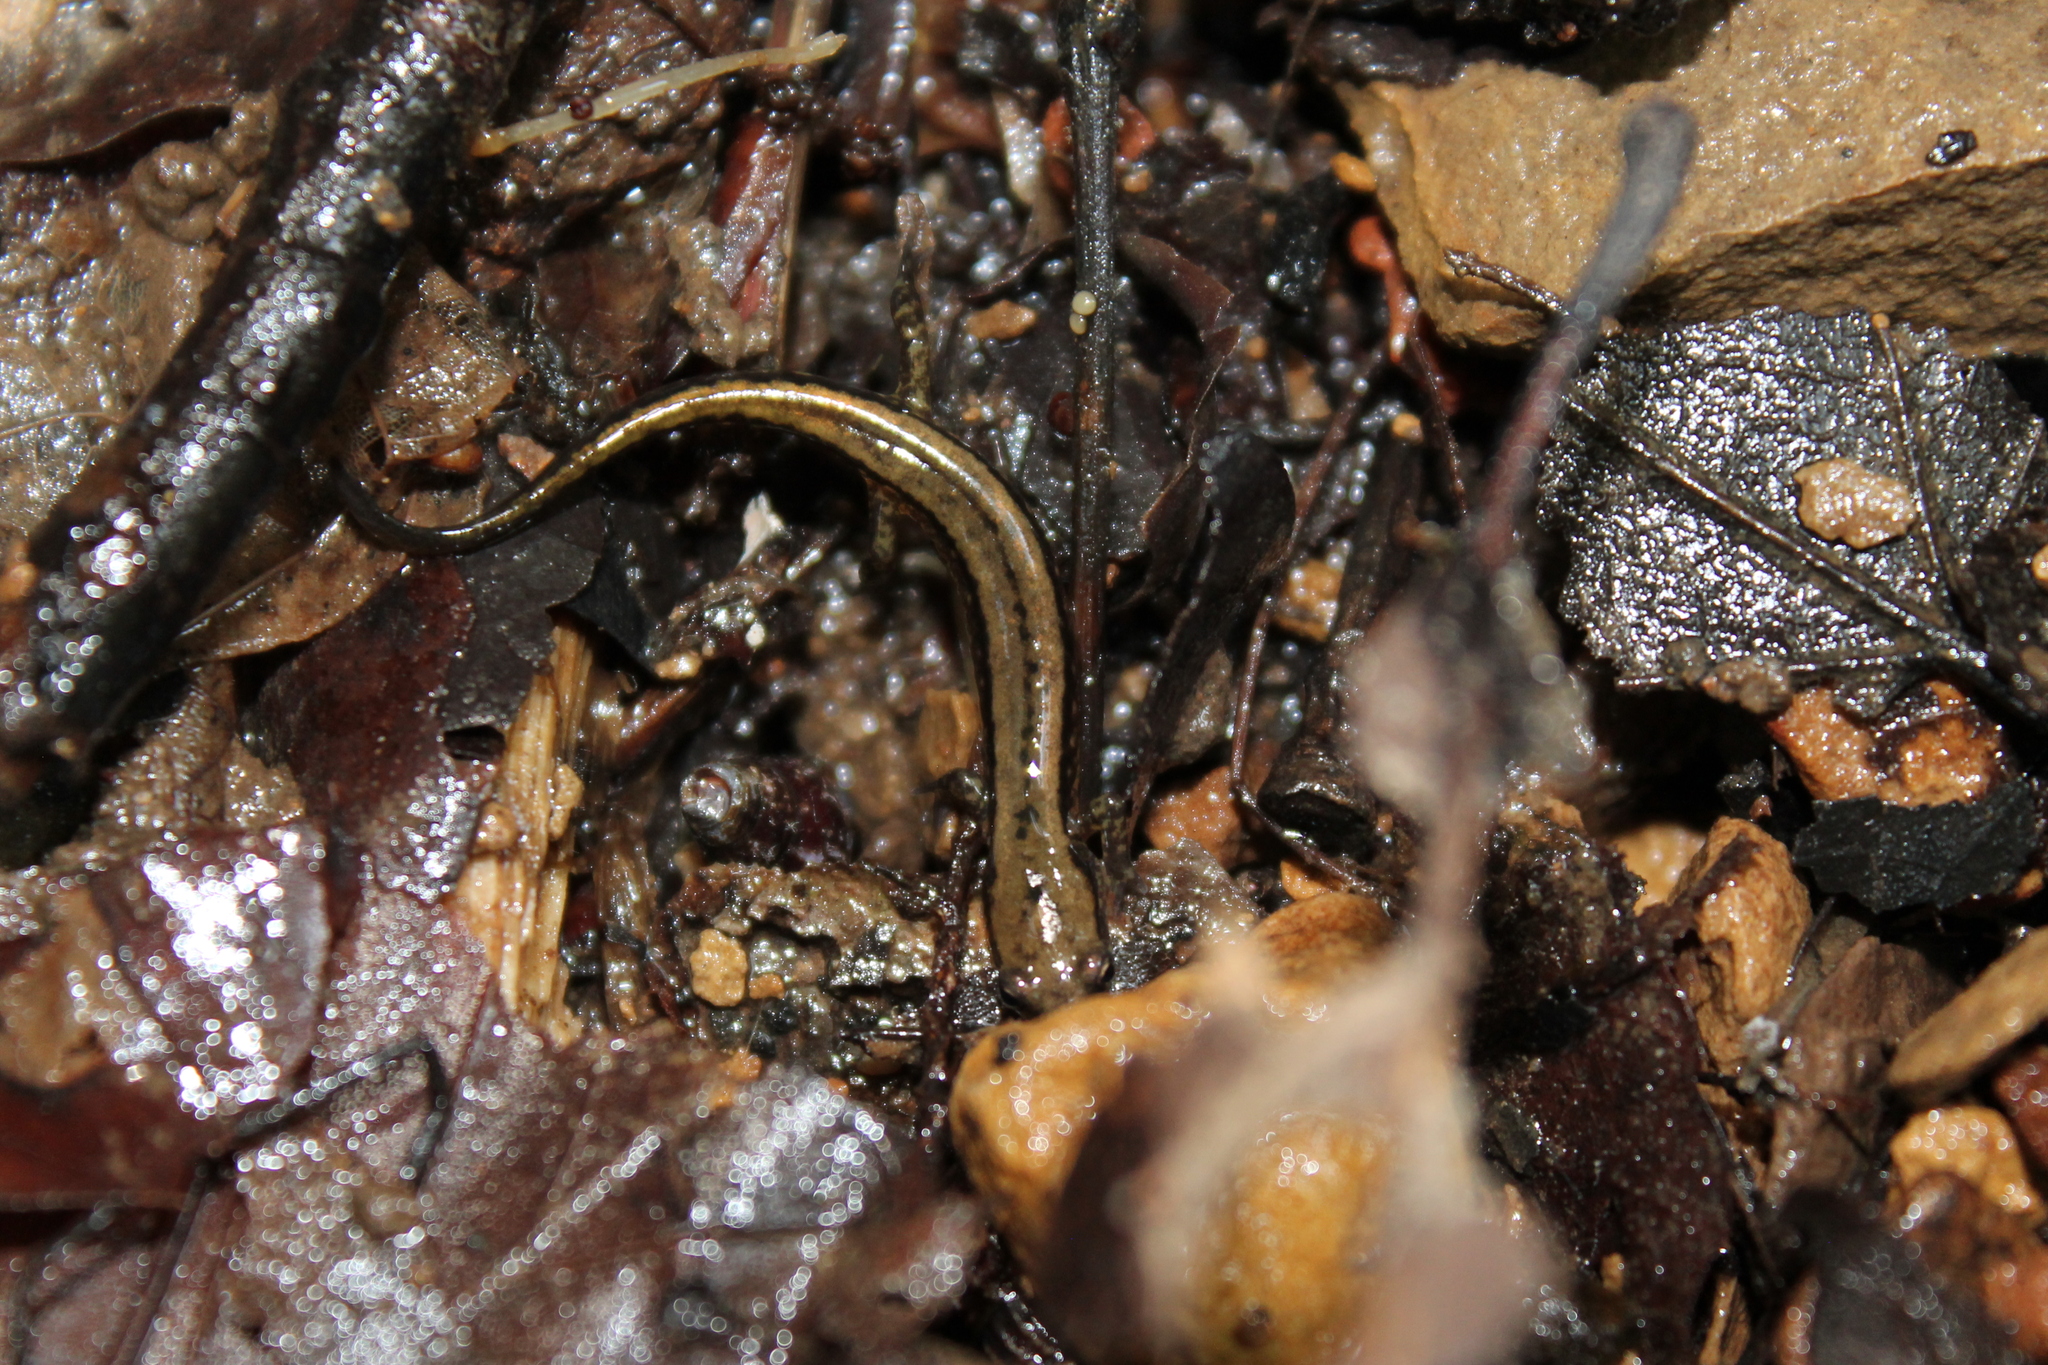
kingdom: Animalia
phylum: Chordata
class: Amphibia
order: Caudata
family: Plethodontidae
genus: Eurycea
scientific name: Eurycea cirrigera
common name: Southern two-lined salamander
